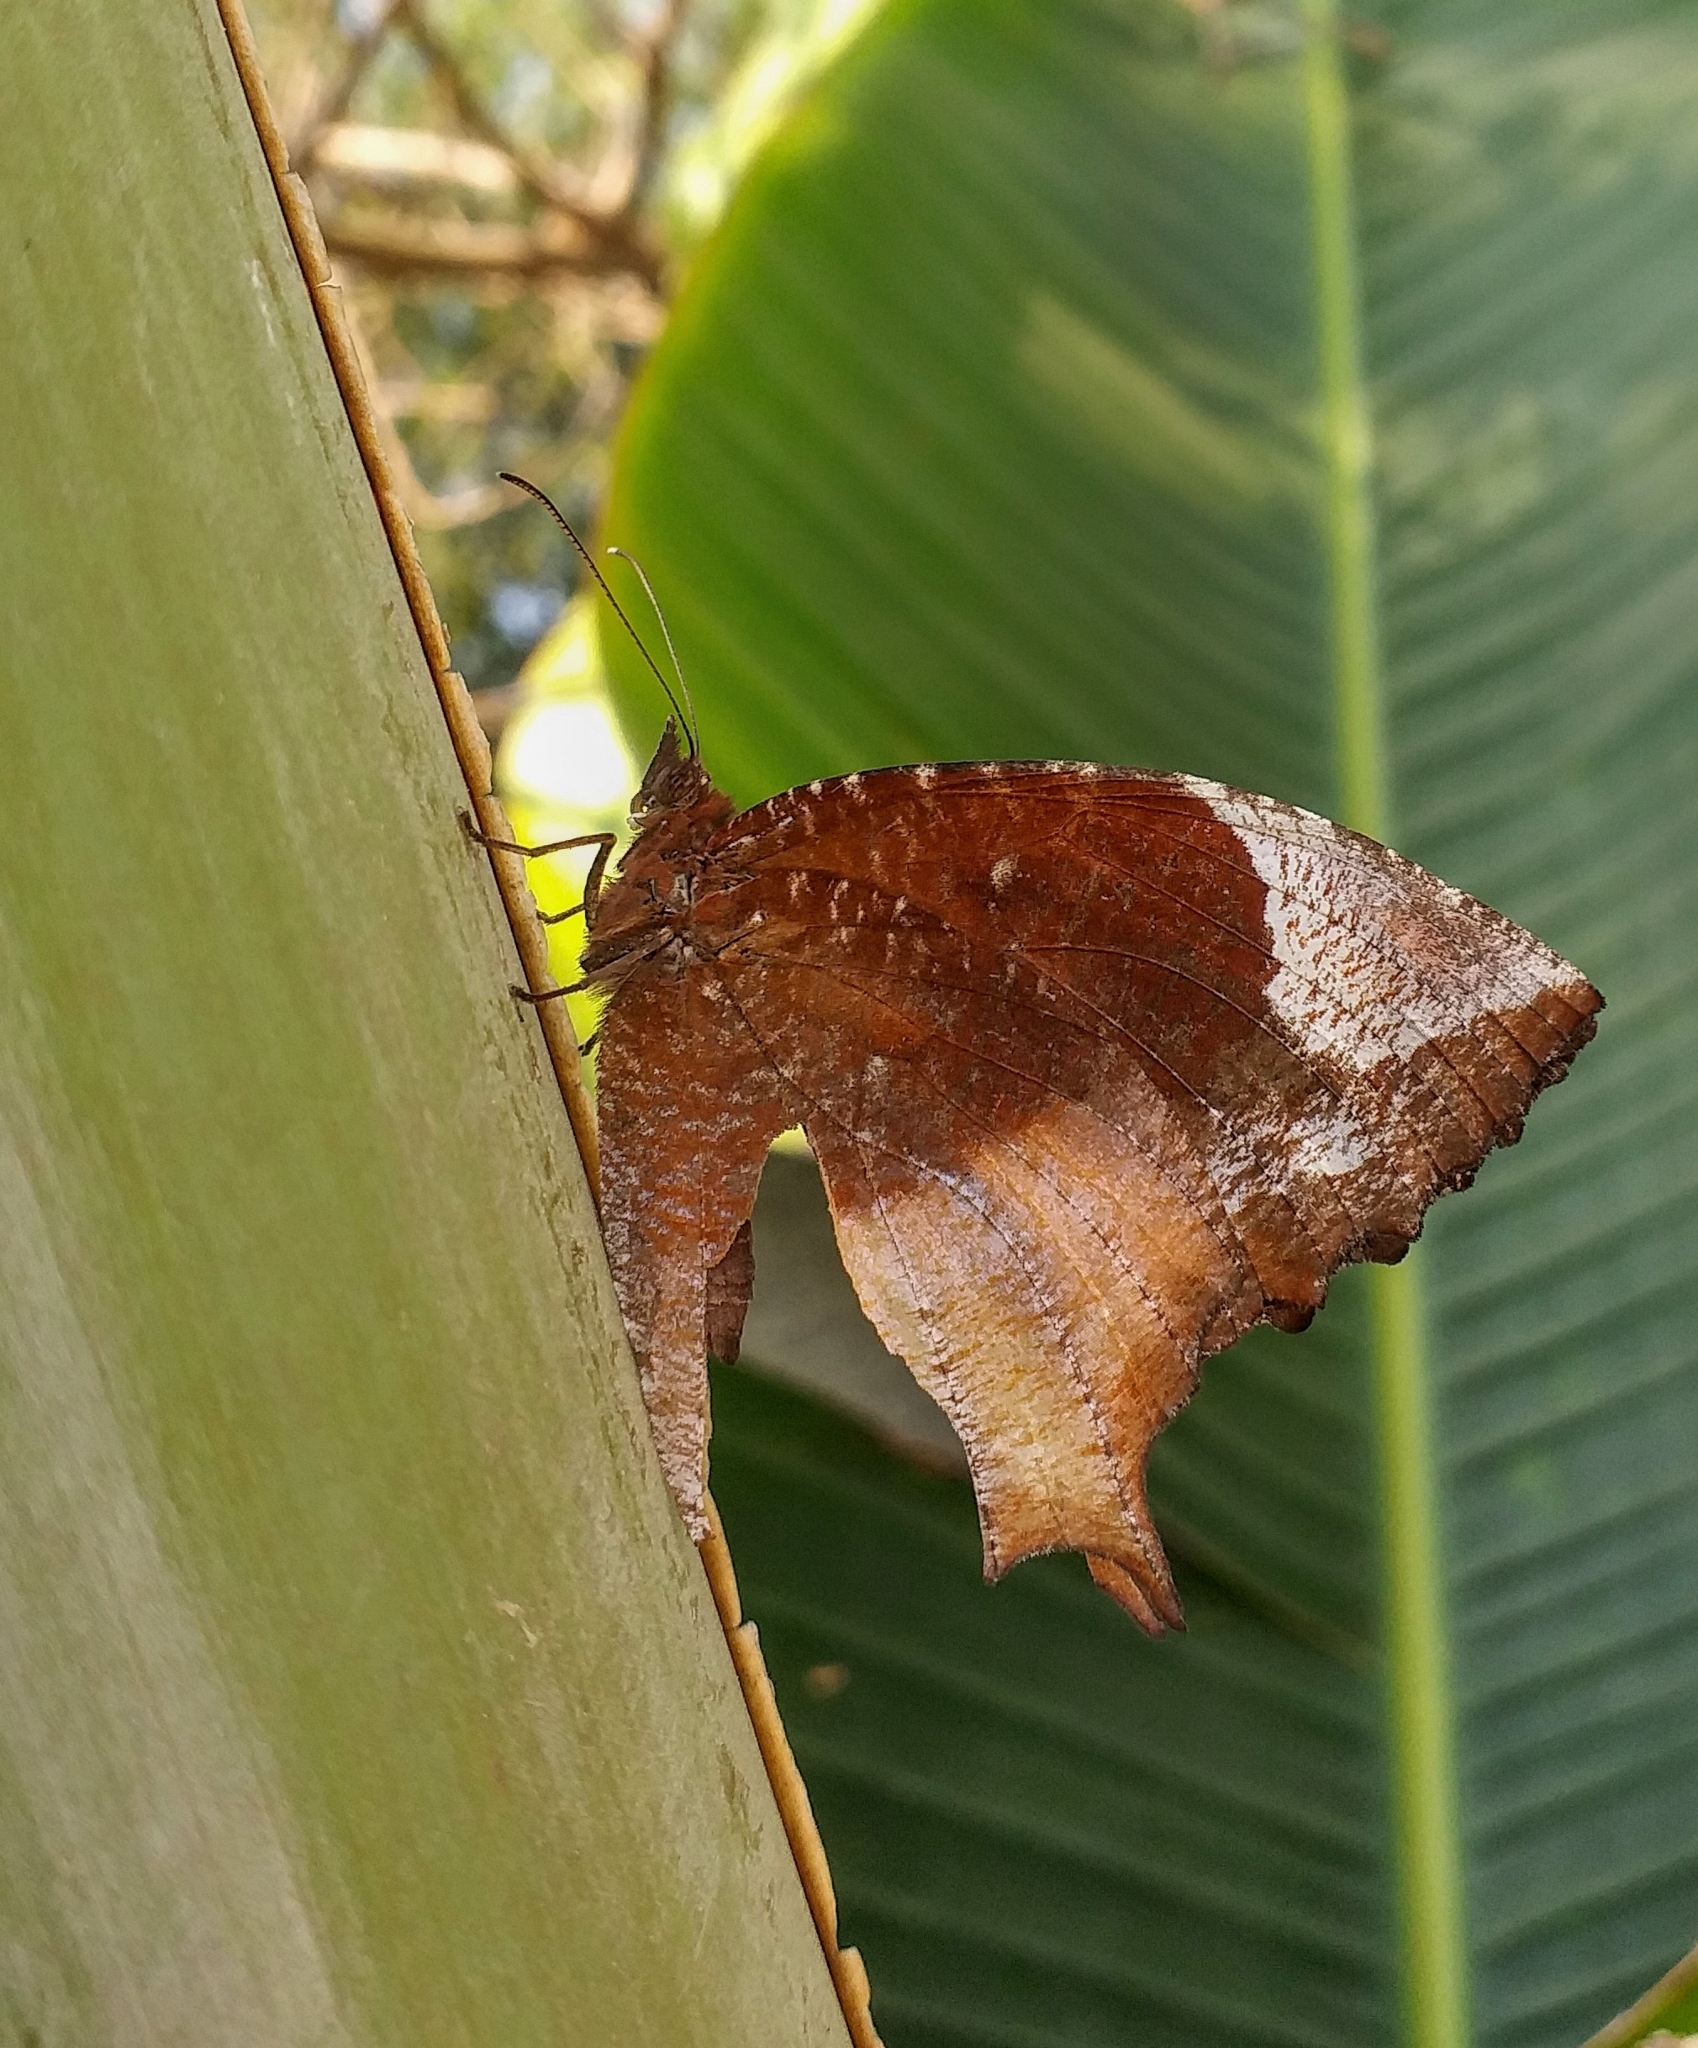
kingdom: Animalia
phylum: Arthropoda
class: Insecta
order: Lepidoptera
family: Nymphalidae
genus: Elymnias
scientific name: Elymnias caudata
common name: Tailed palmfly
